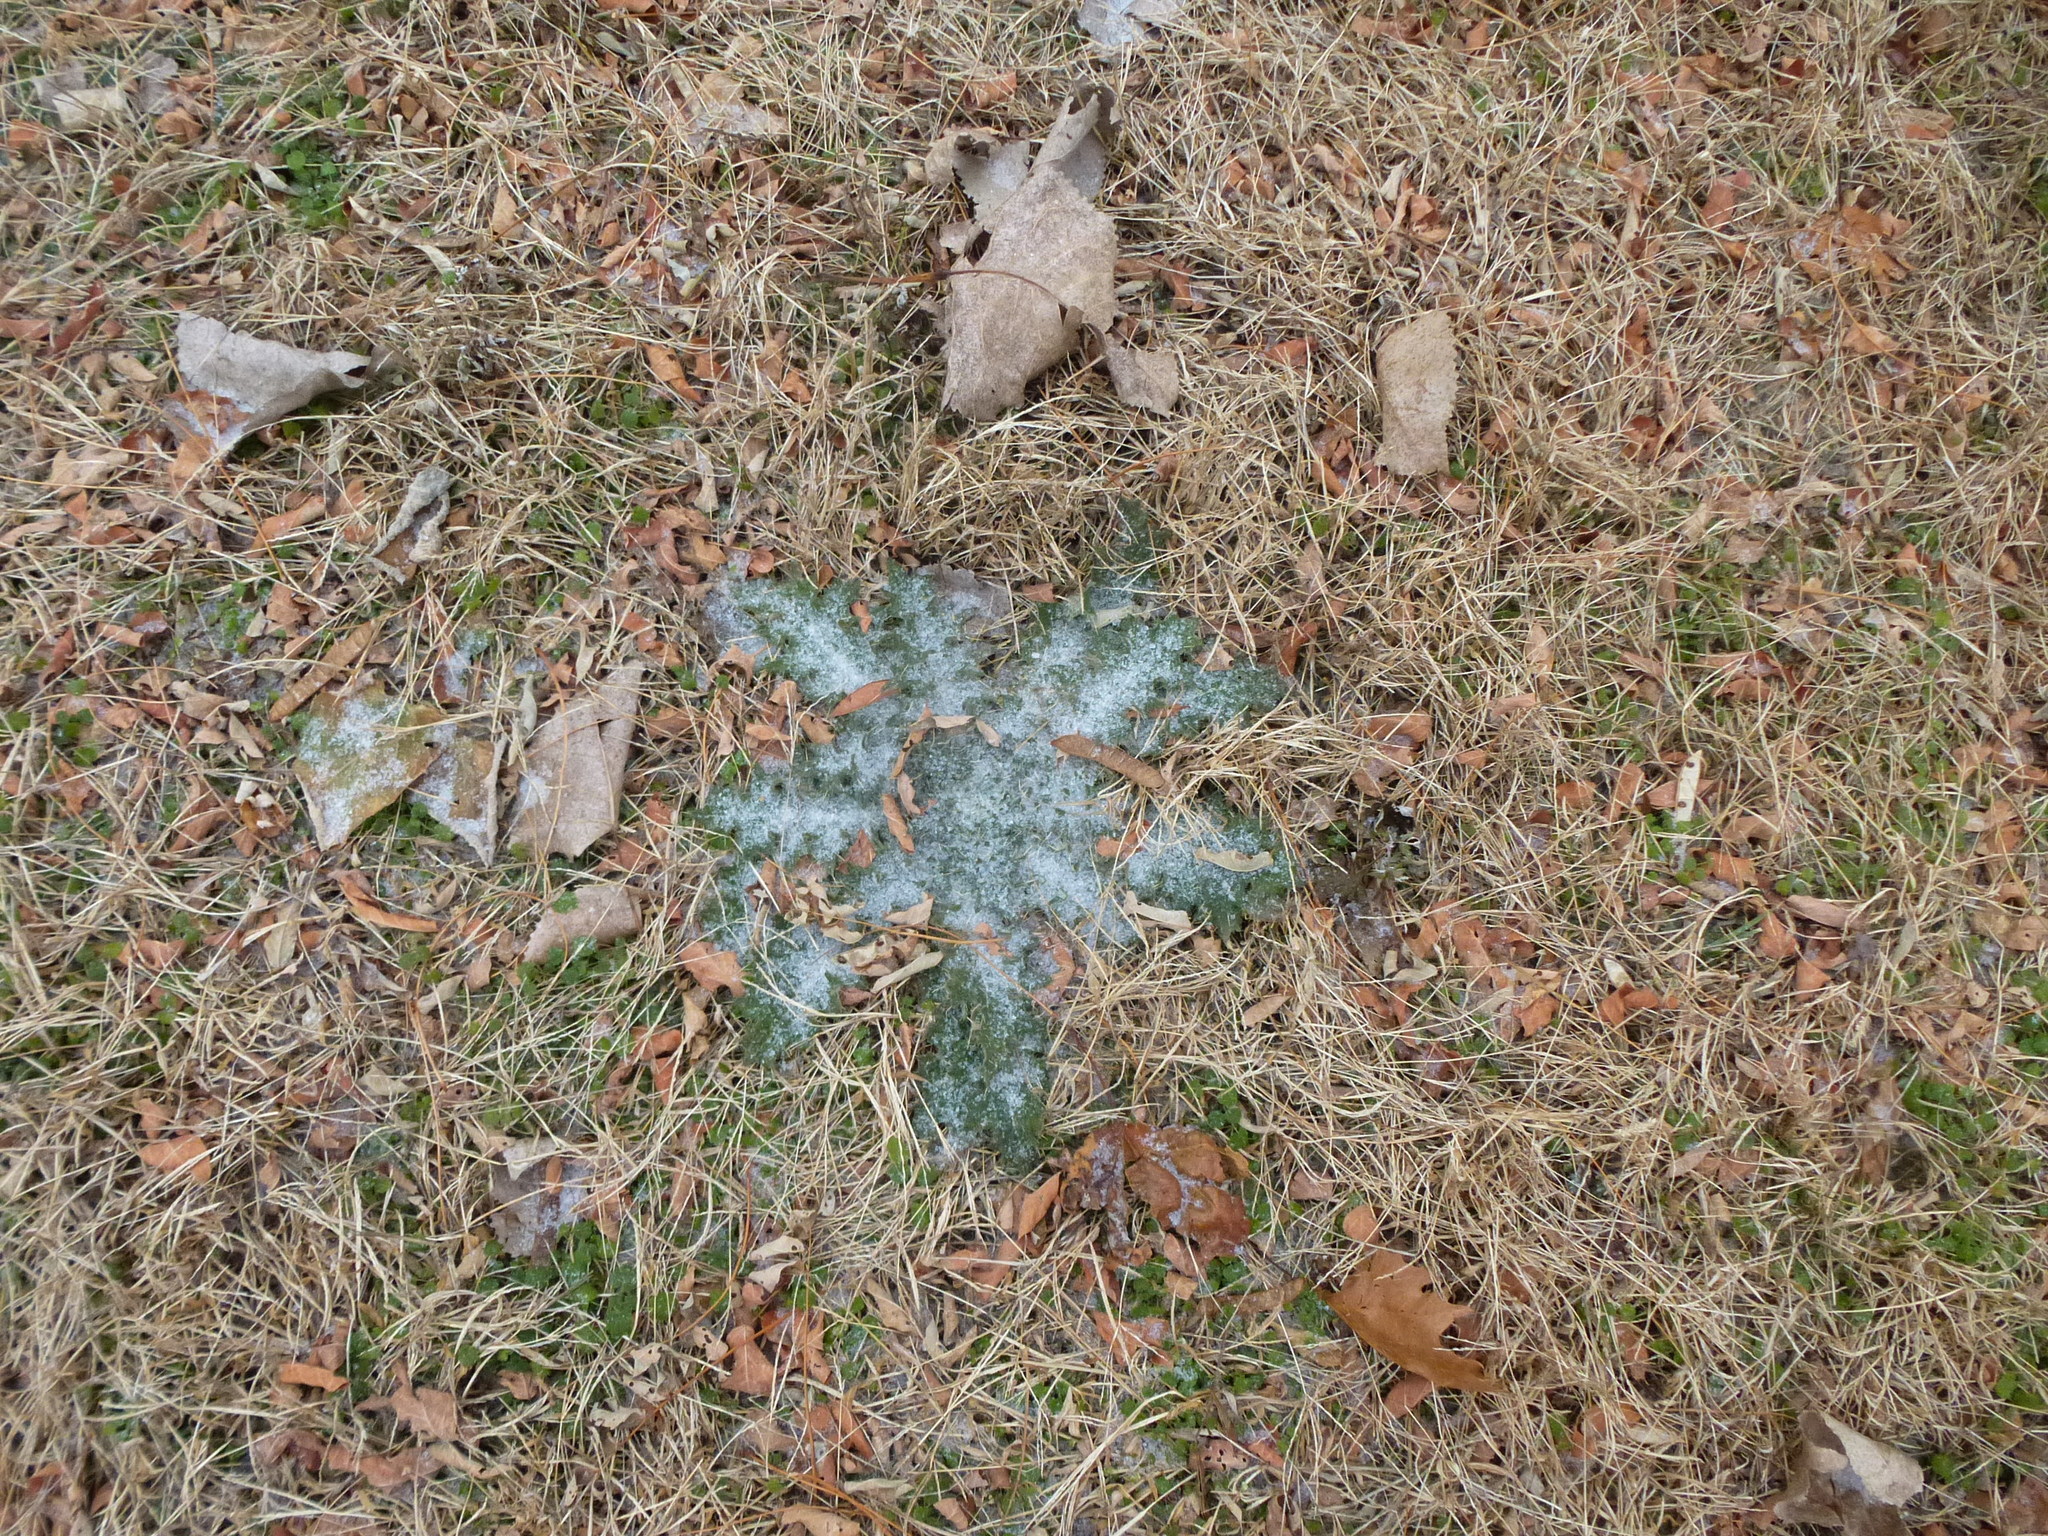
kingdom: Plantae
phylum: Tracheophyta
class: Magnoliopsida
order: Asterales
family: Asteraceae
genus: Cirsium
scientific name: Cirsium vulgare
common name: Bull thistle
